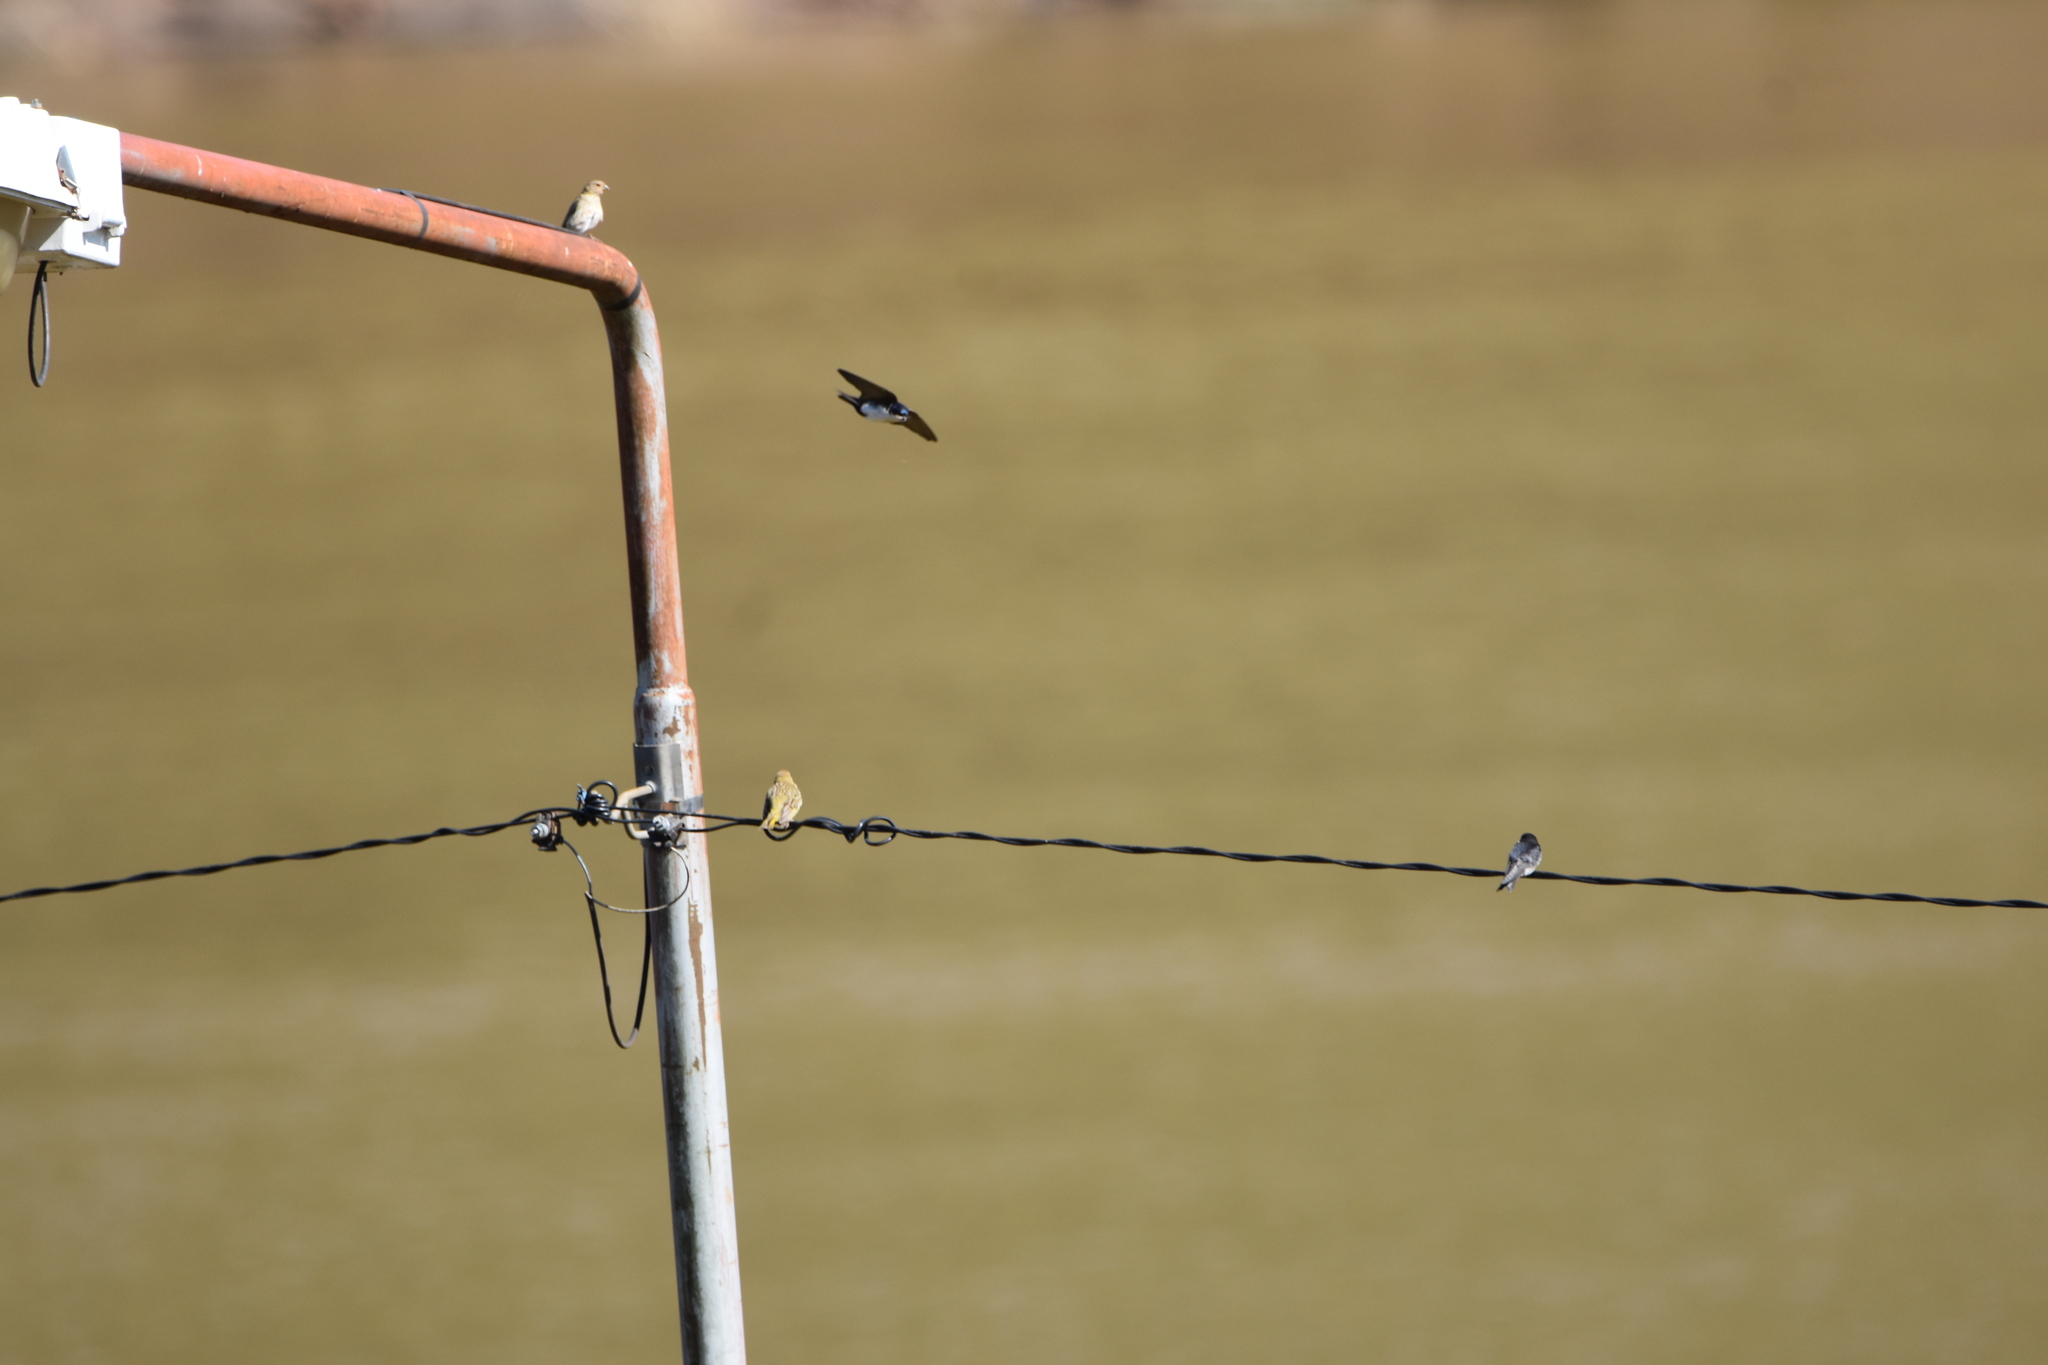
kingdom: Animalia
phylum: Chordata
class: Aves
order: Passeriformes
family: Hirundinidae
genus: Notiochelidon
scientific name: Notiochelidon cyanoleuca
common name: Blue-and-white swallow
